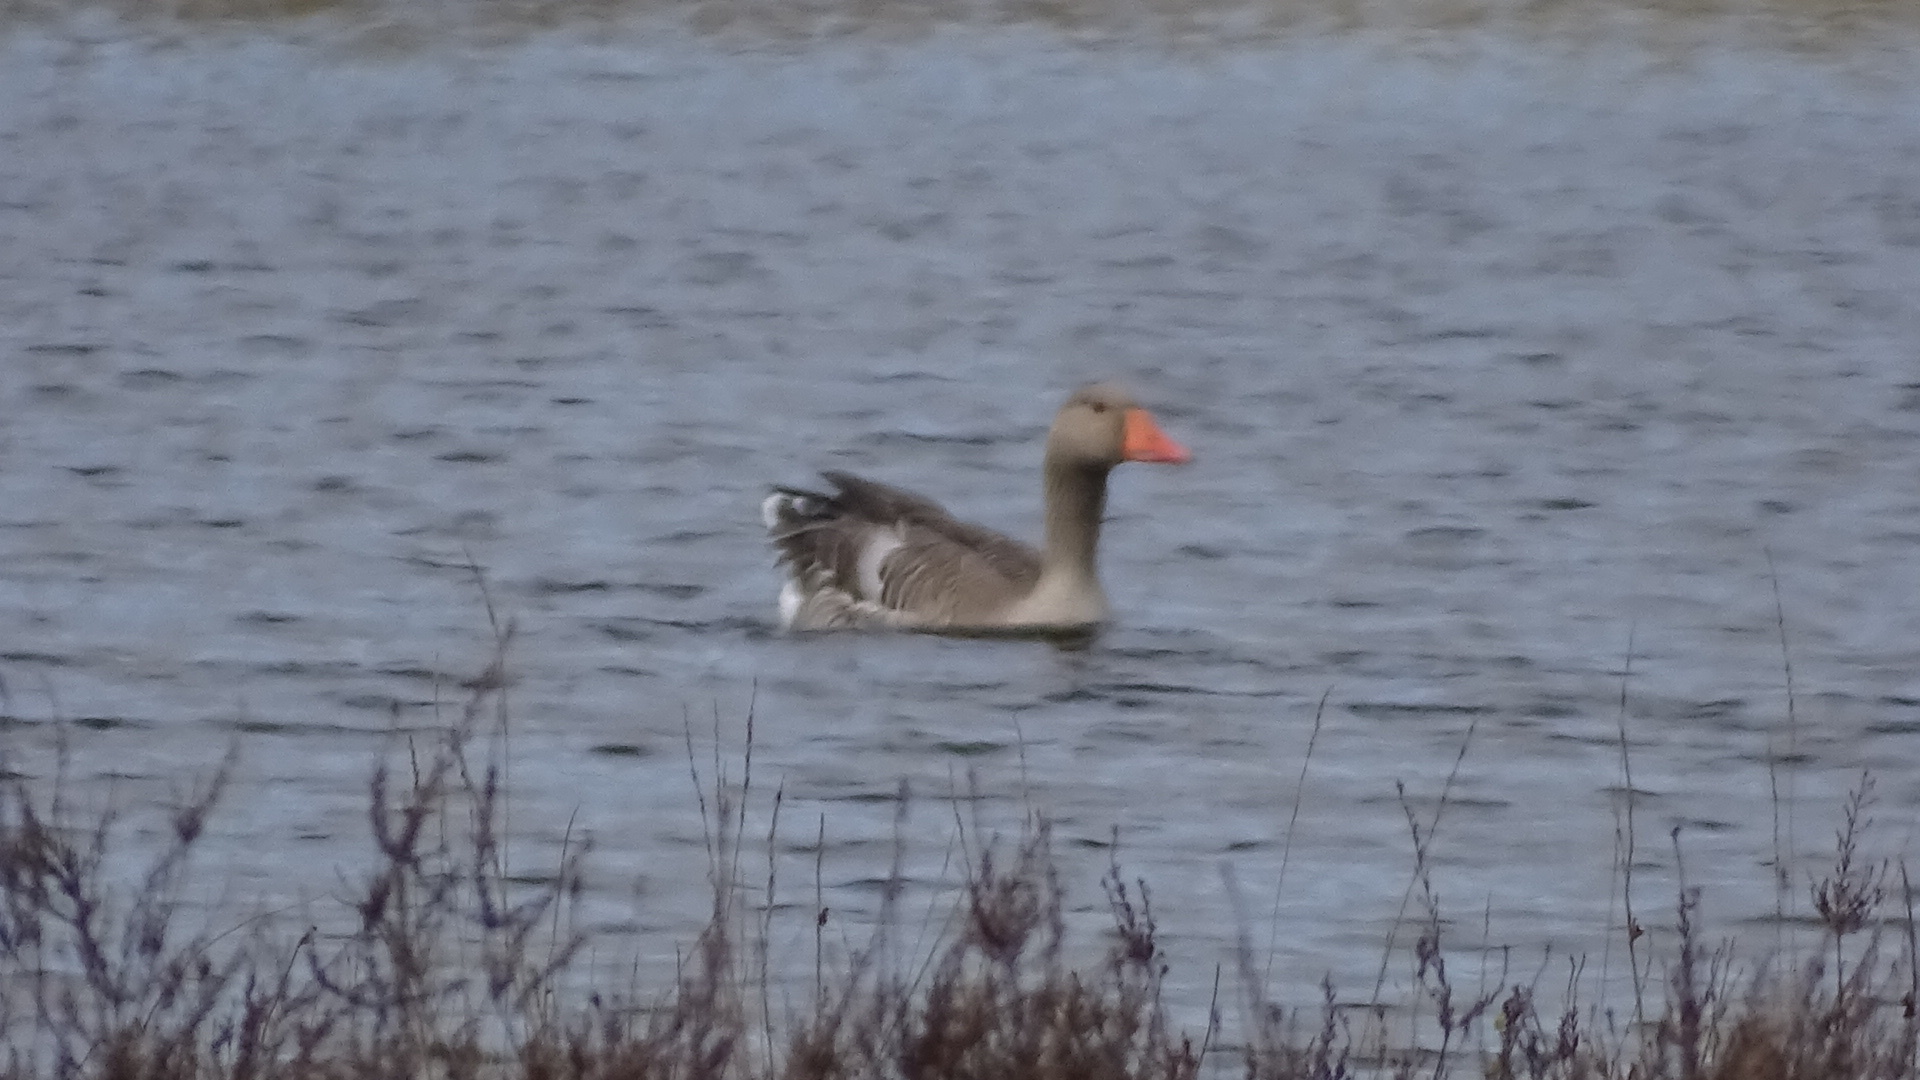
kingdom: Animalia
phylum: Chordata
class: Aves
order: Anseriformes
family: Anatidae
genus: Anser
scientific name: Anser anser
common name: Greylag goose
